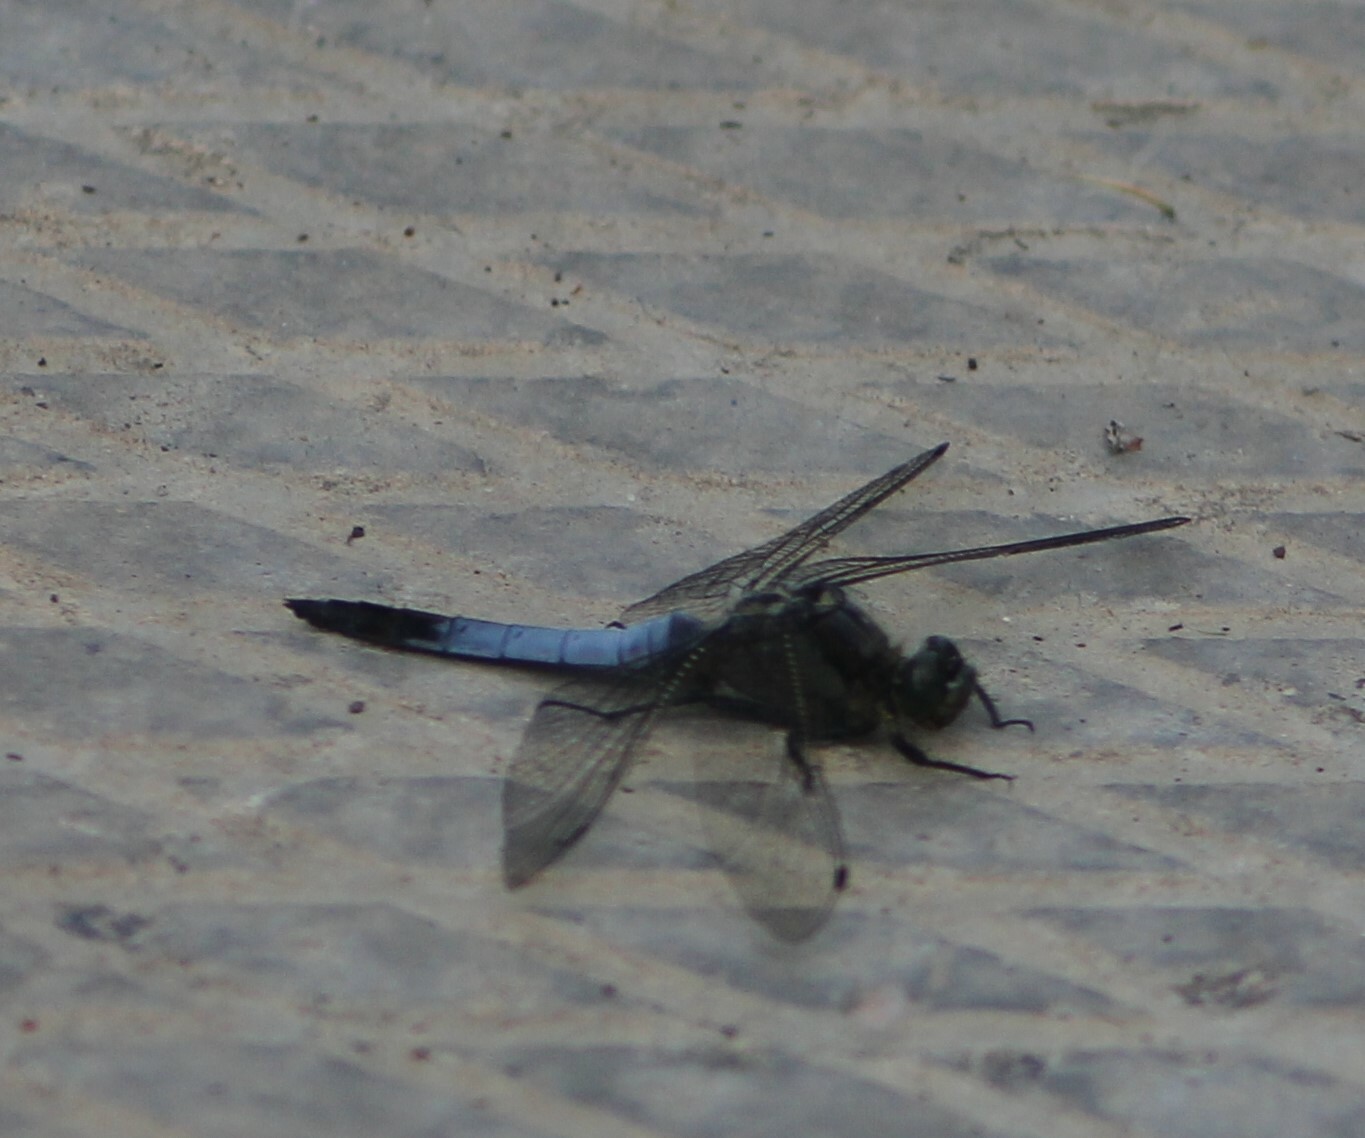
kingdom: Animalia
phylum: Arthropoda
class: Insecta
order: Odonata
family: Libellulidae
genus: Orthetrum
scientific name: Orthetrum cancellatum
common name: Black-tailed skimmer
